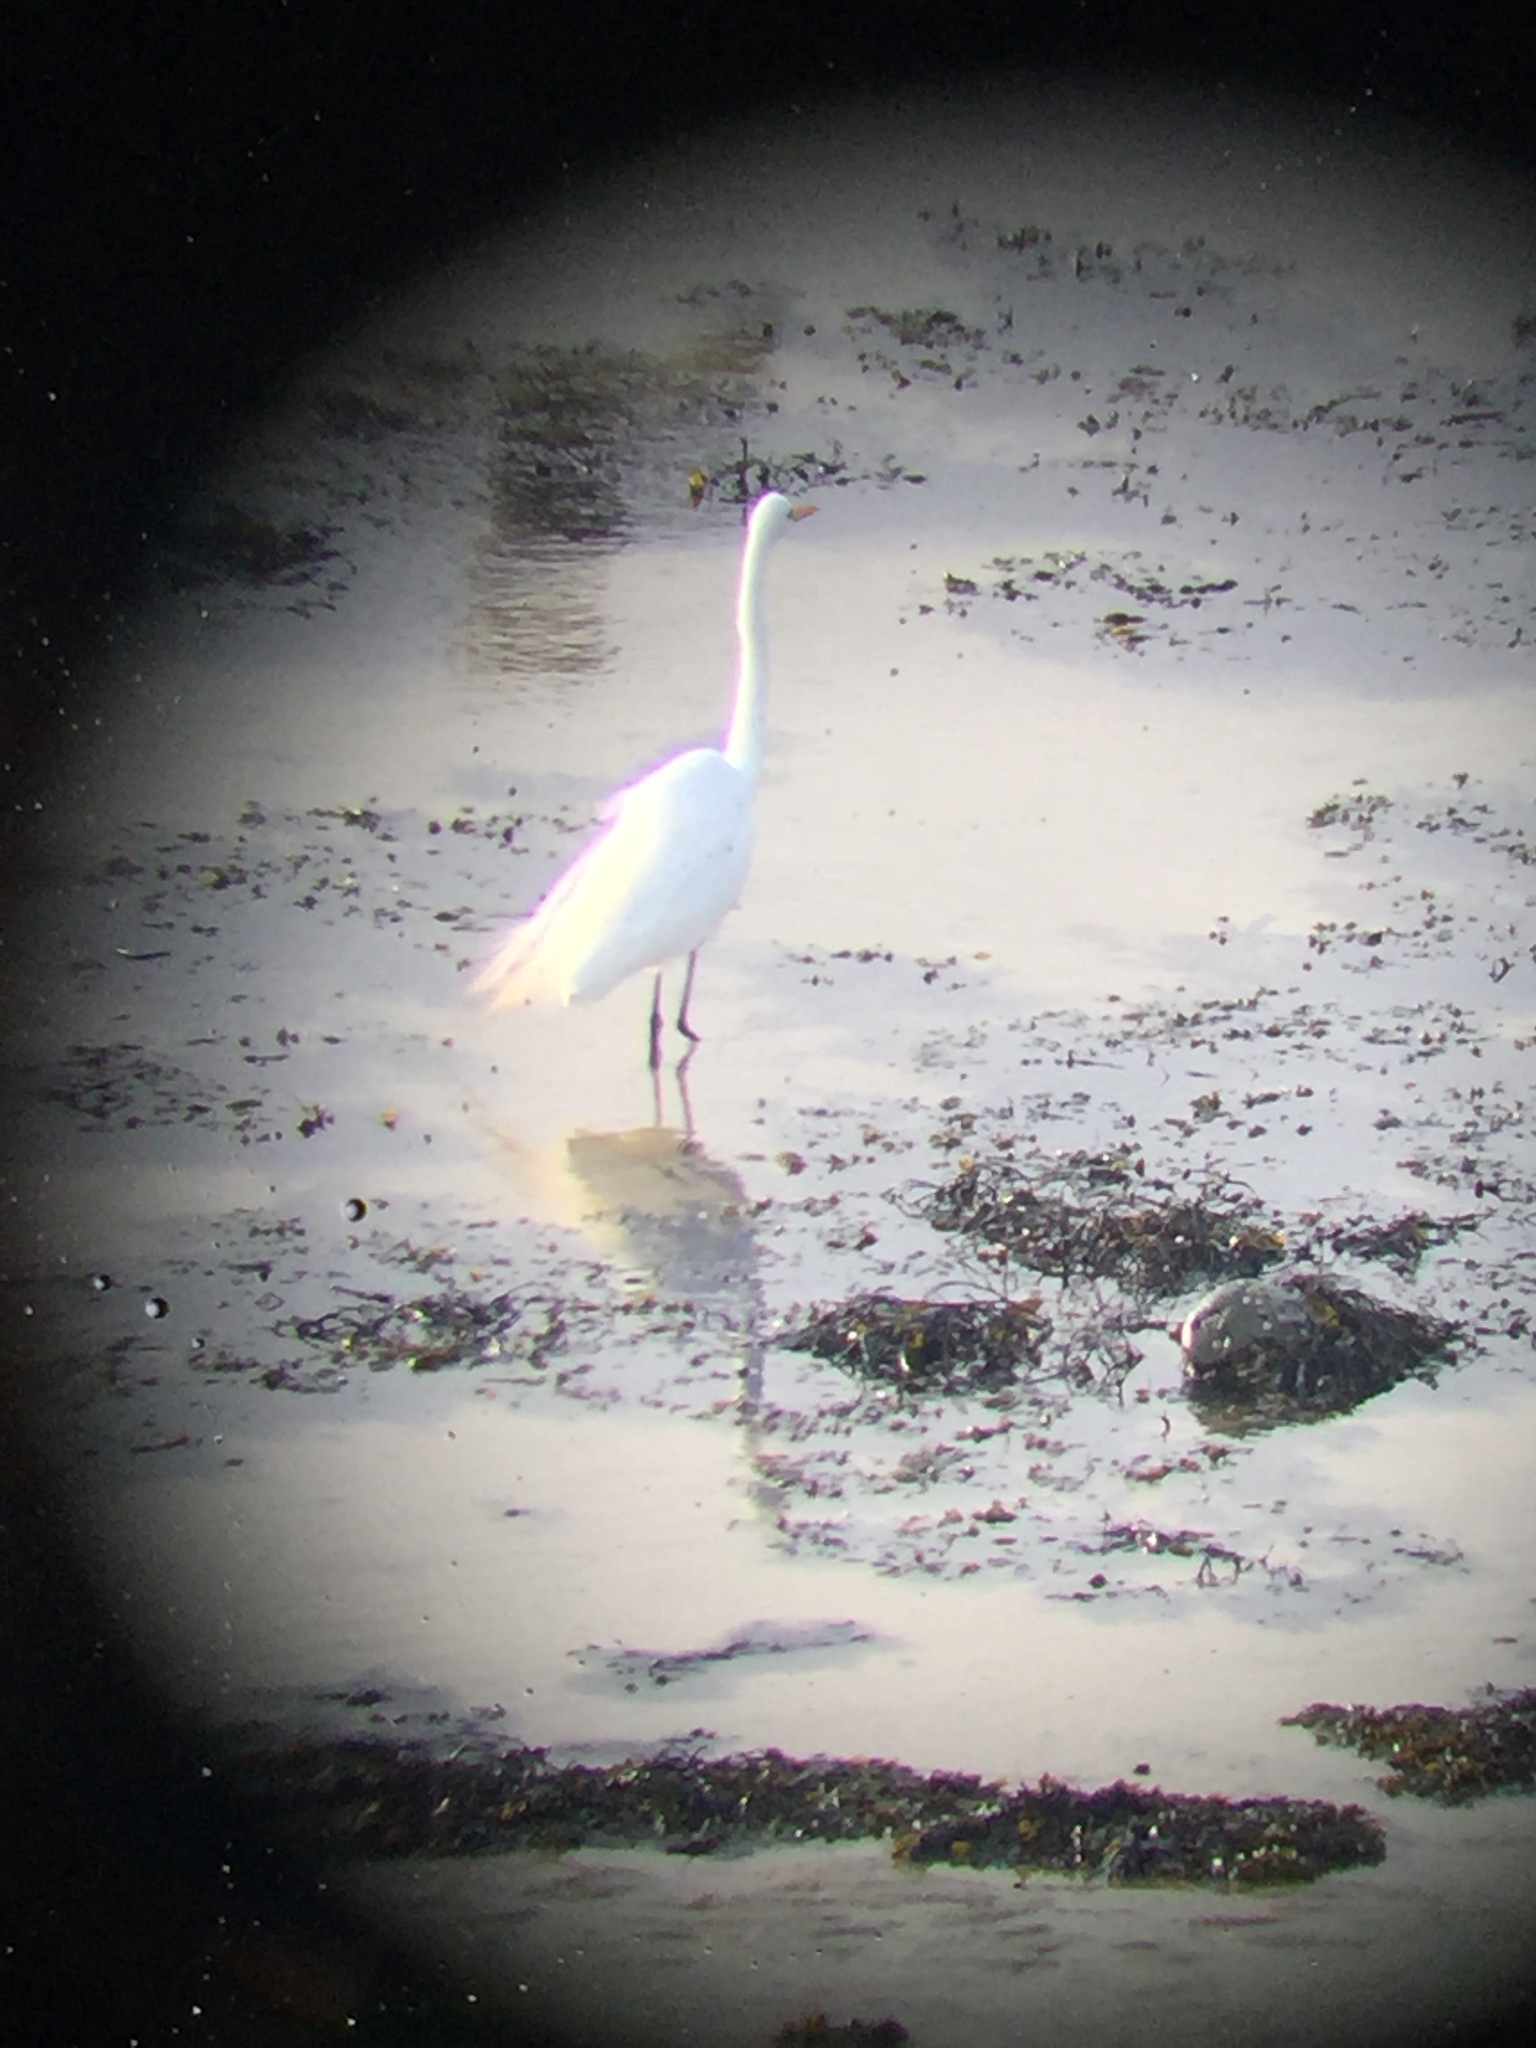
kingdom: Animalia
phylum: Chordata
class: Aves
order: Pelecaniformes
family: Ardeidae
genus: Ardea
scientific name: Ardea alba
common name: Great egret
